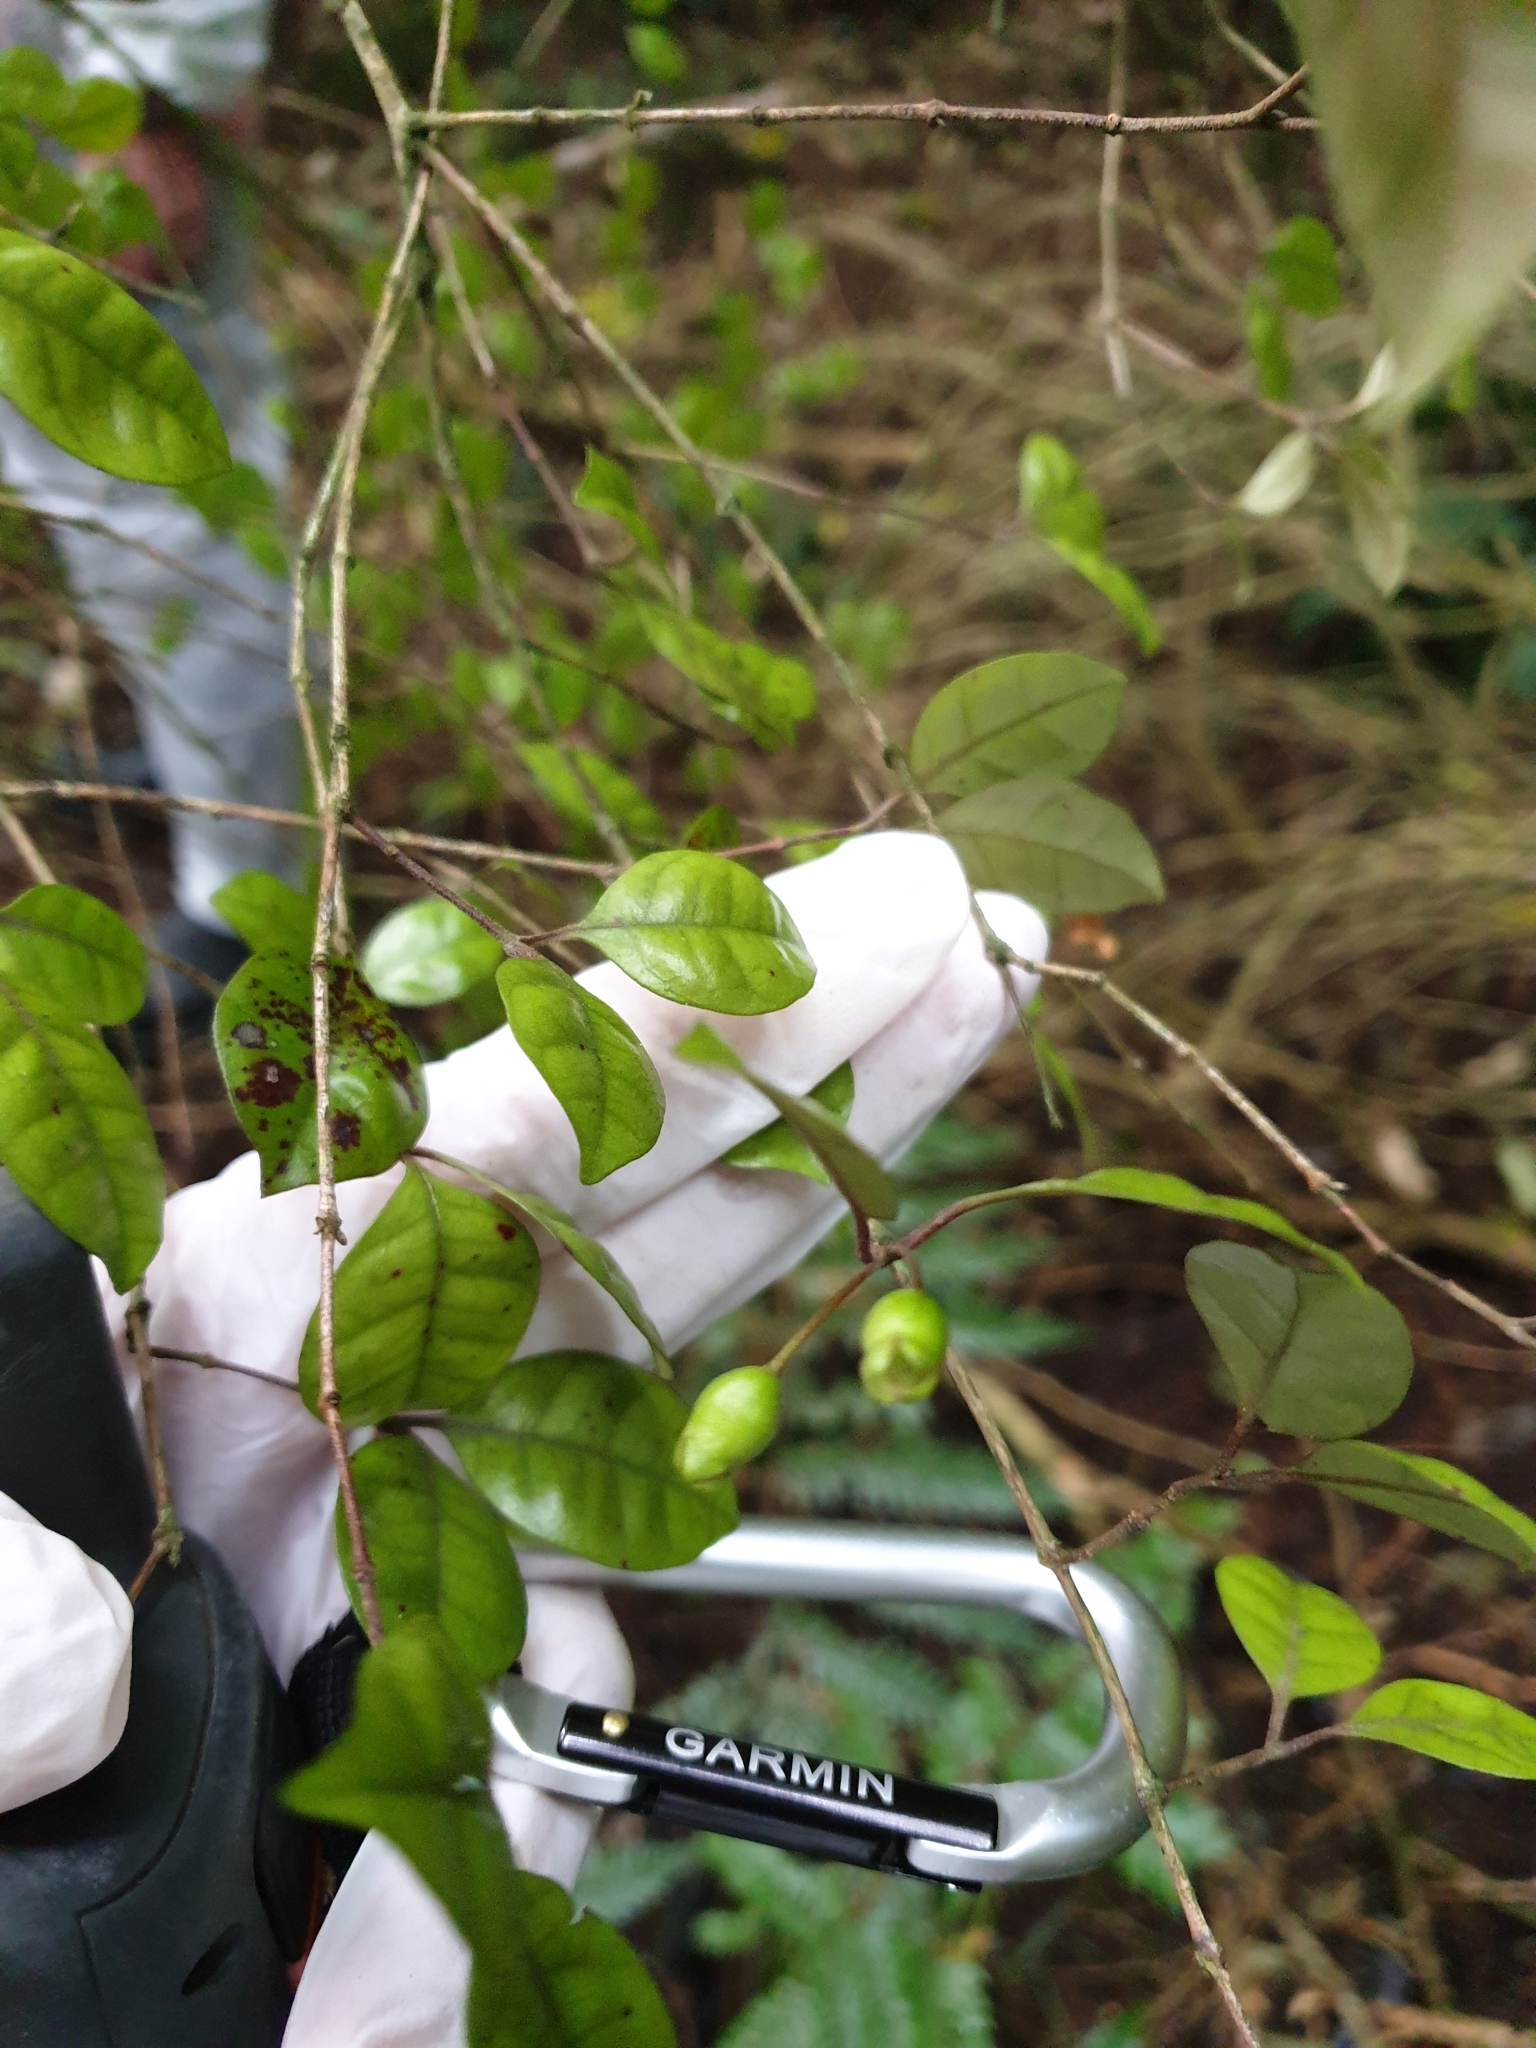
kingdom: Plantae
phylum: Tracheophyta
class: Magnoliopsida
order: Myrtales
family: Myrtaceae
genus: Lophomyrtus
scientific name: Lophomyrtus bullata
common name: Rama rama
